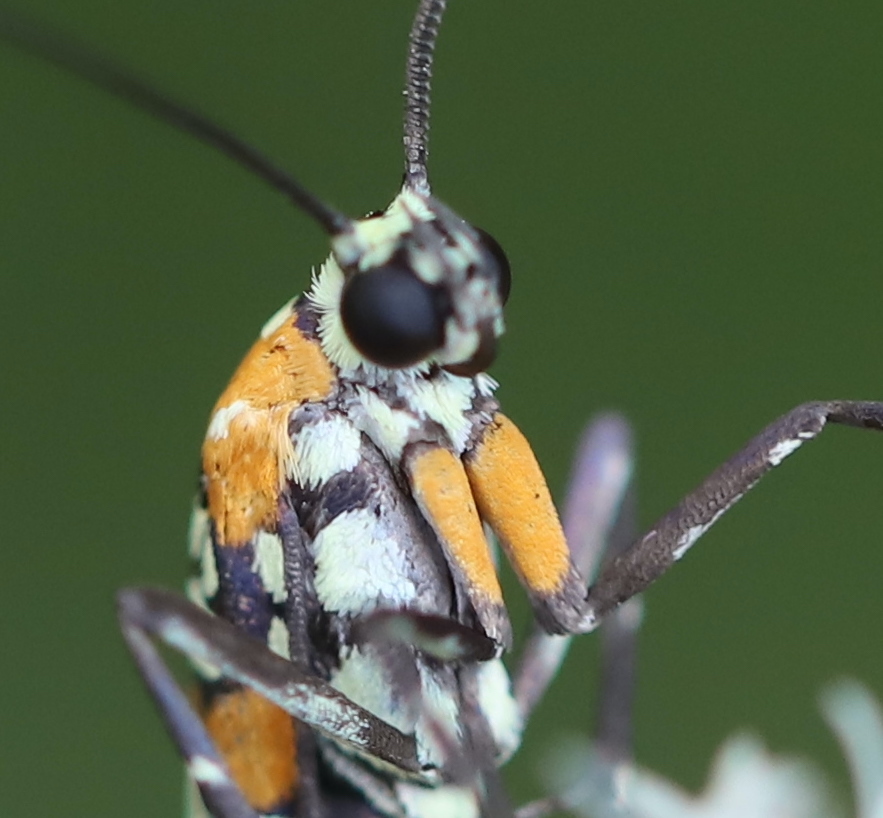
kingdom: Animalia
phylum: Arthropoda
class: Insecta
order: Lepidoptera
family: Attevidae
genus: Atteva
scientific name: Atteva punctella
